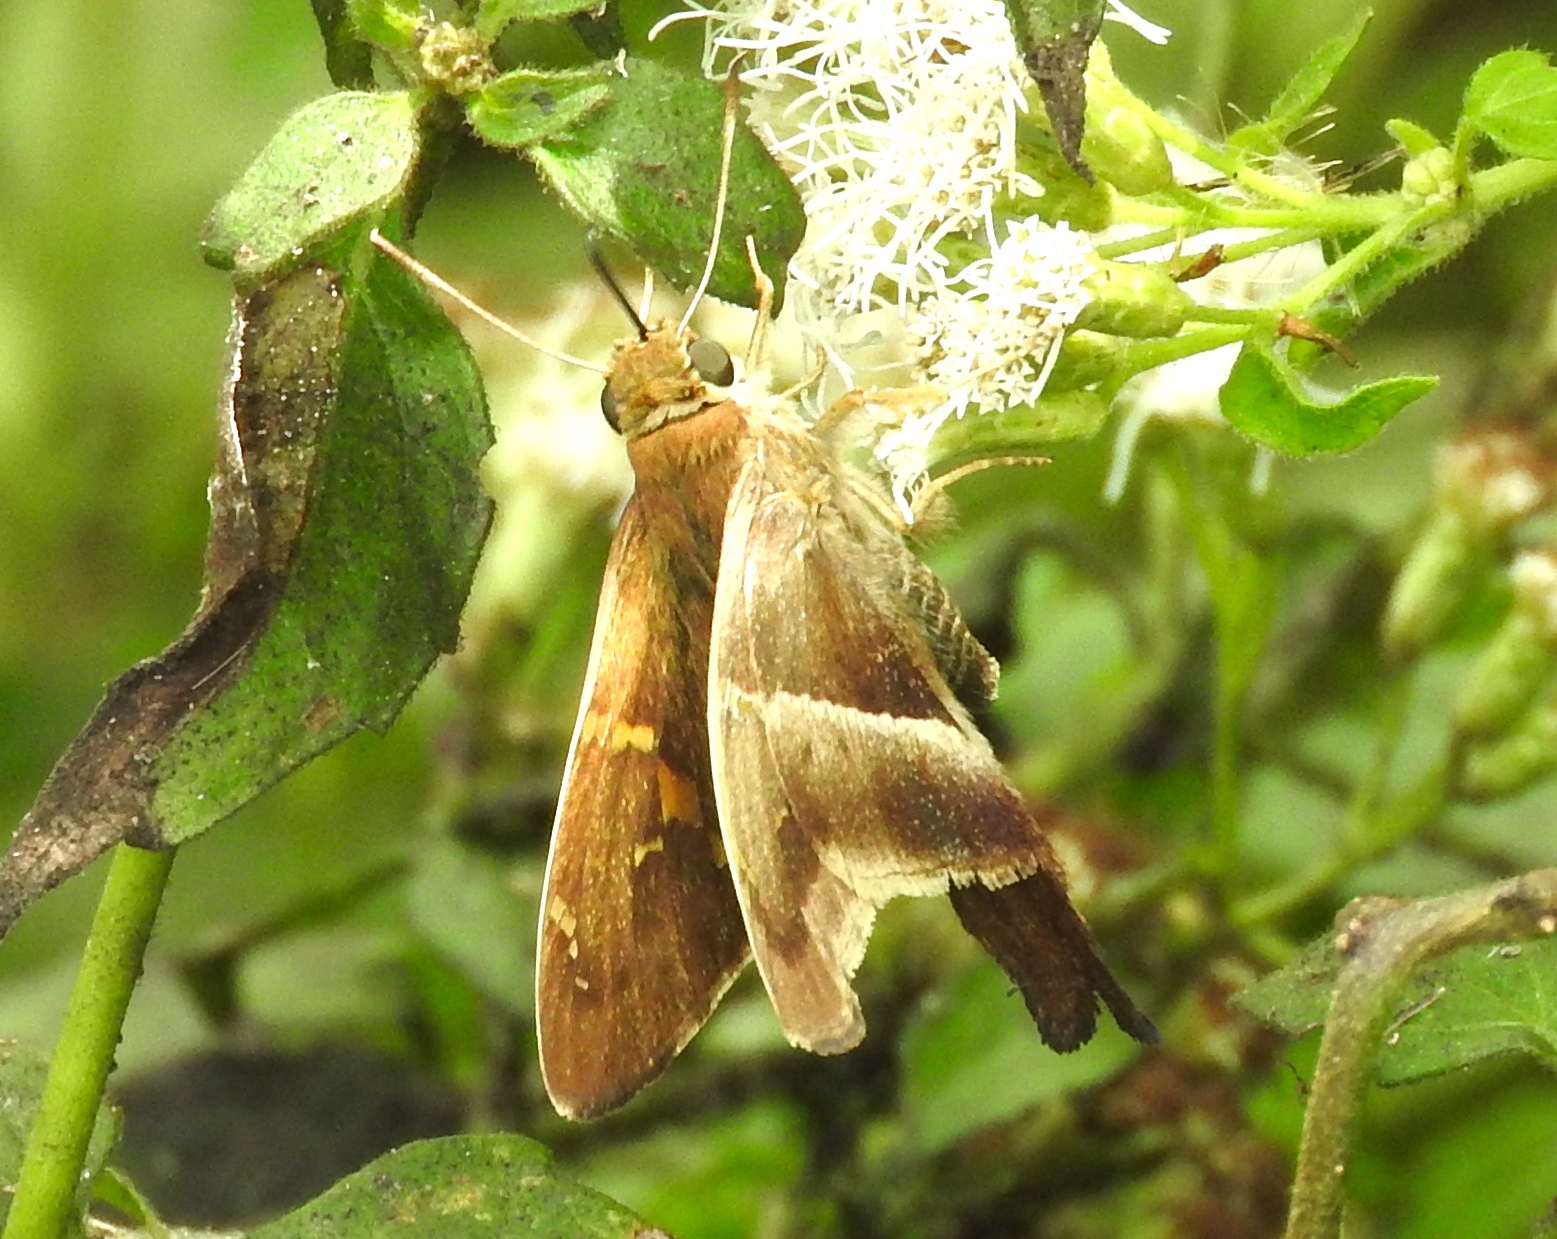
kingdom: Animalia
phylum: Arthropoda
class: Insecta
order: Lepidoptera
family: Hesperiidae
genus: Aguna
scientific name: Aguna metophis
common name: Tailed aguna
